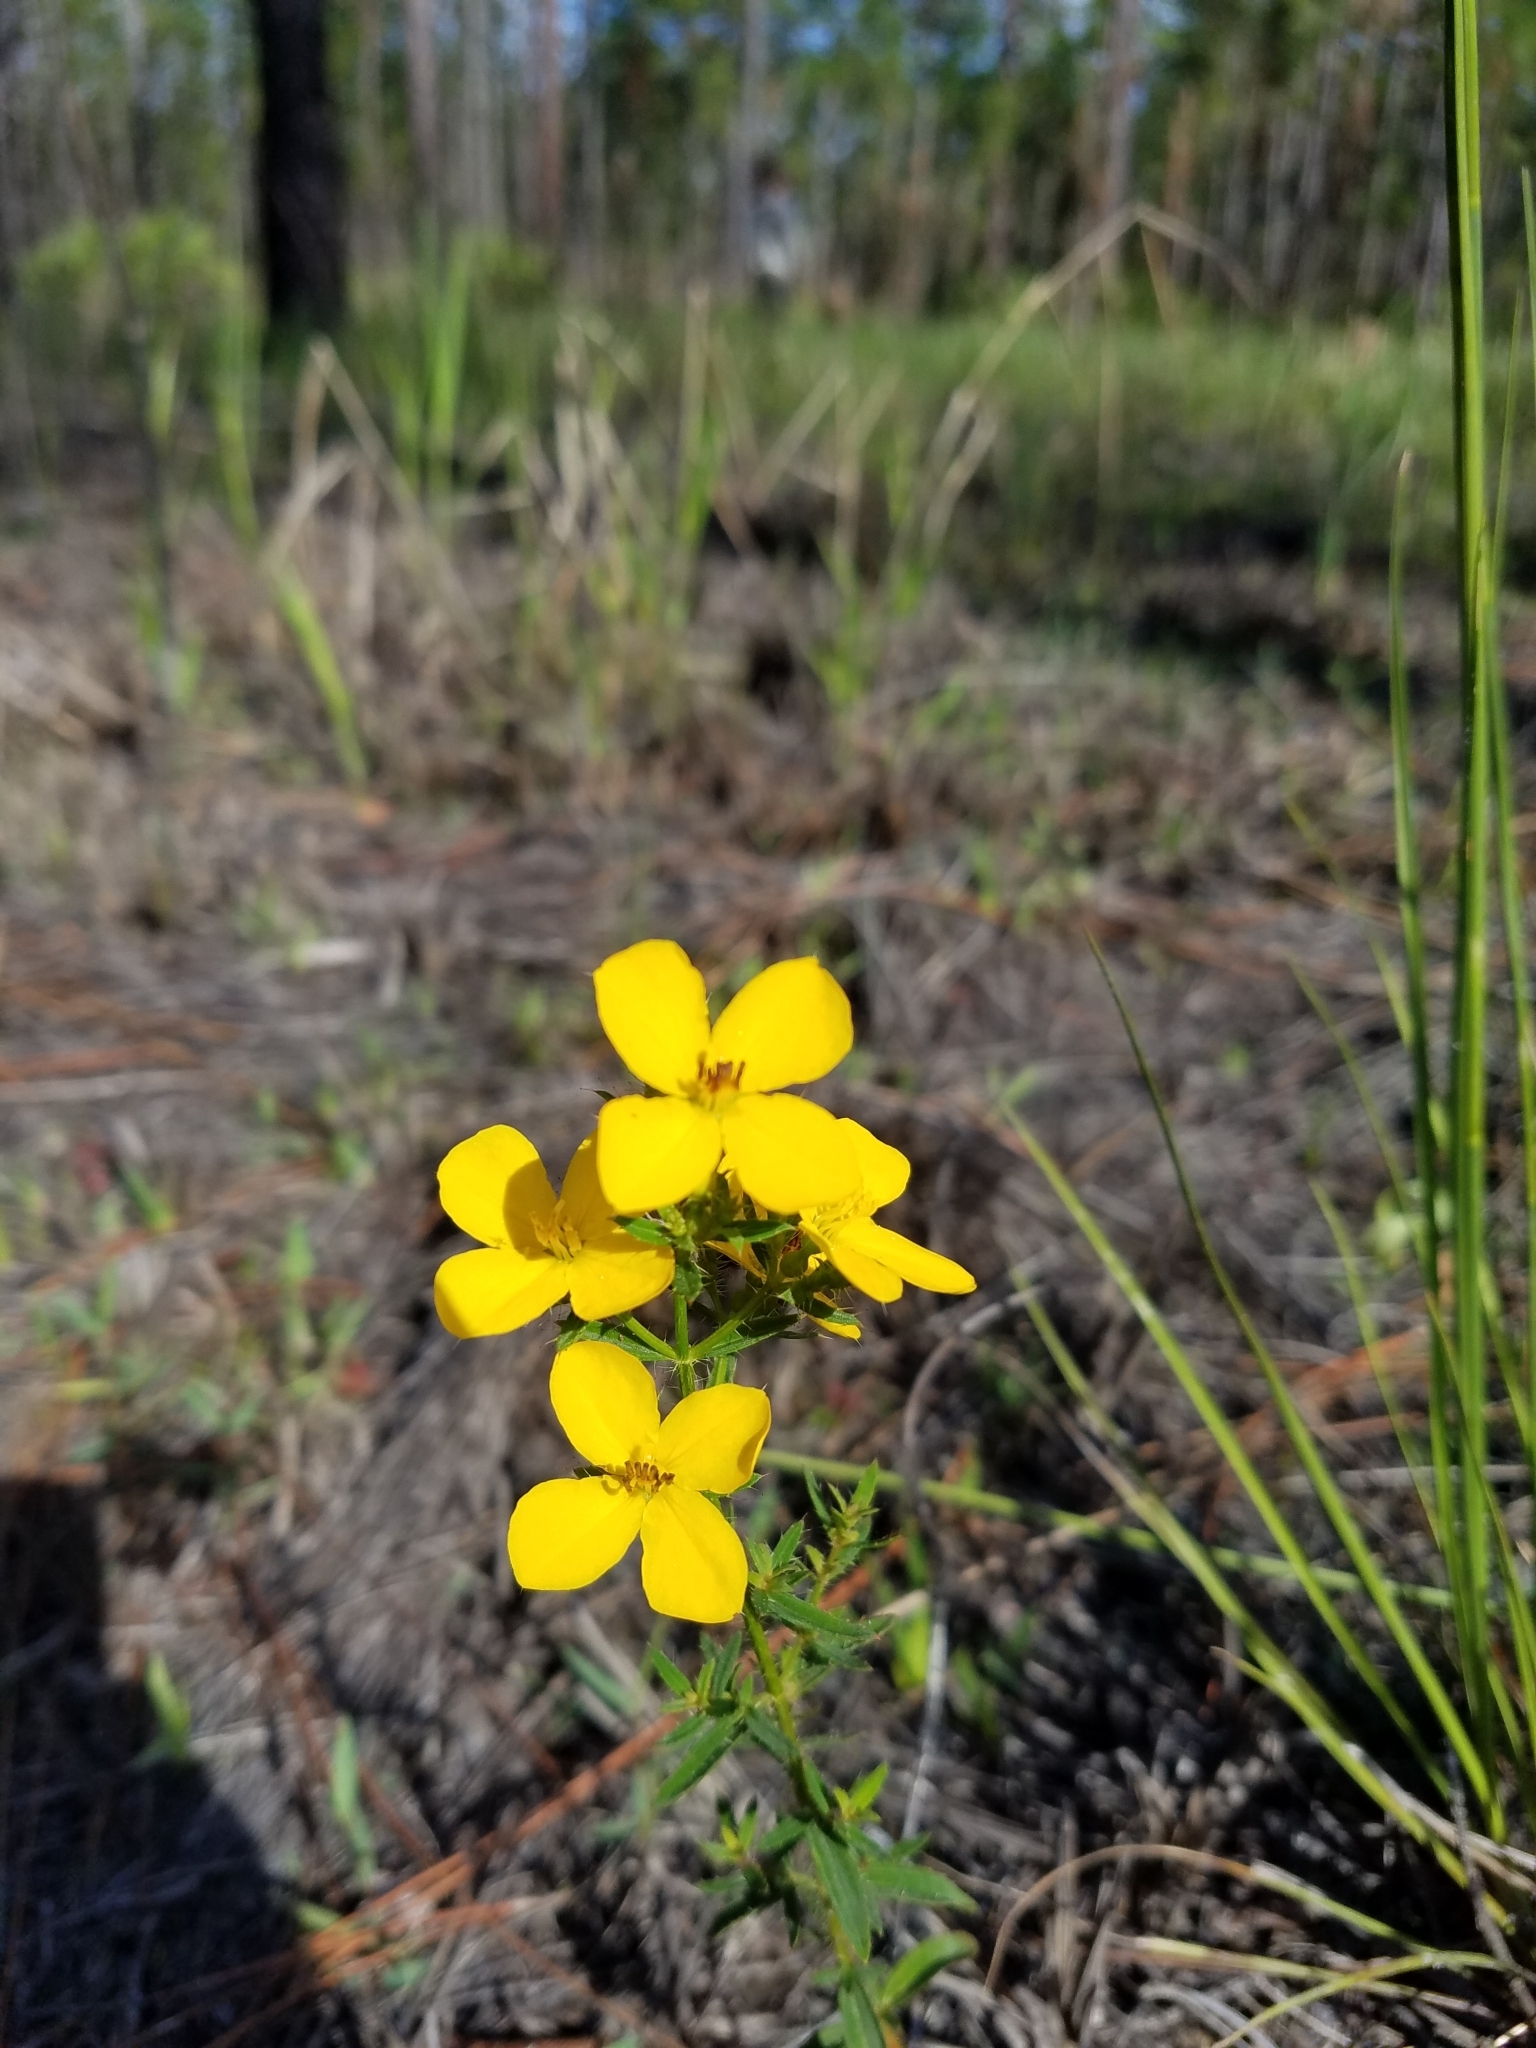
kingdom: Plantae
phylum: Tracheophyta
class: Magnoliopsida
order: Myrtales
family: Melastomataceae
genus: Rhexia
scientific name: Rhexia lutea
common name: Golden meadow-beauty
